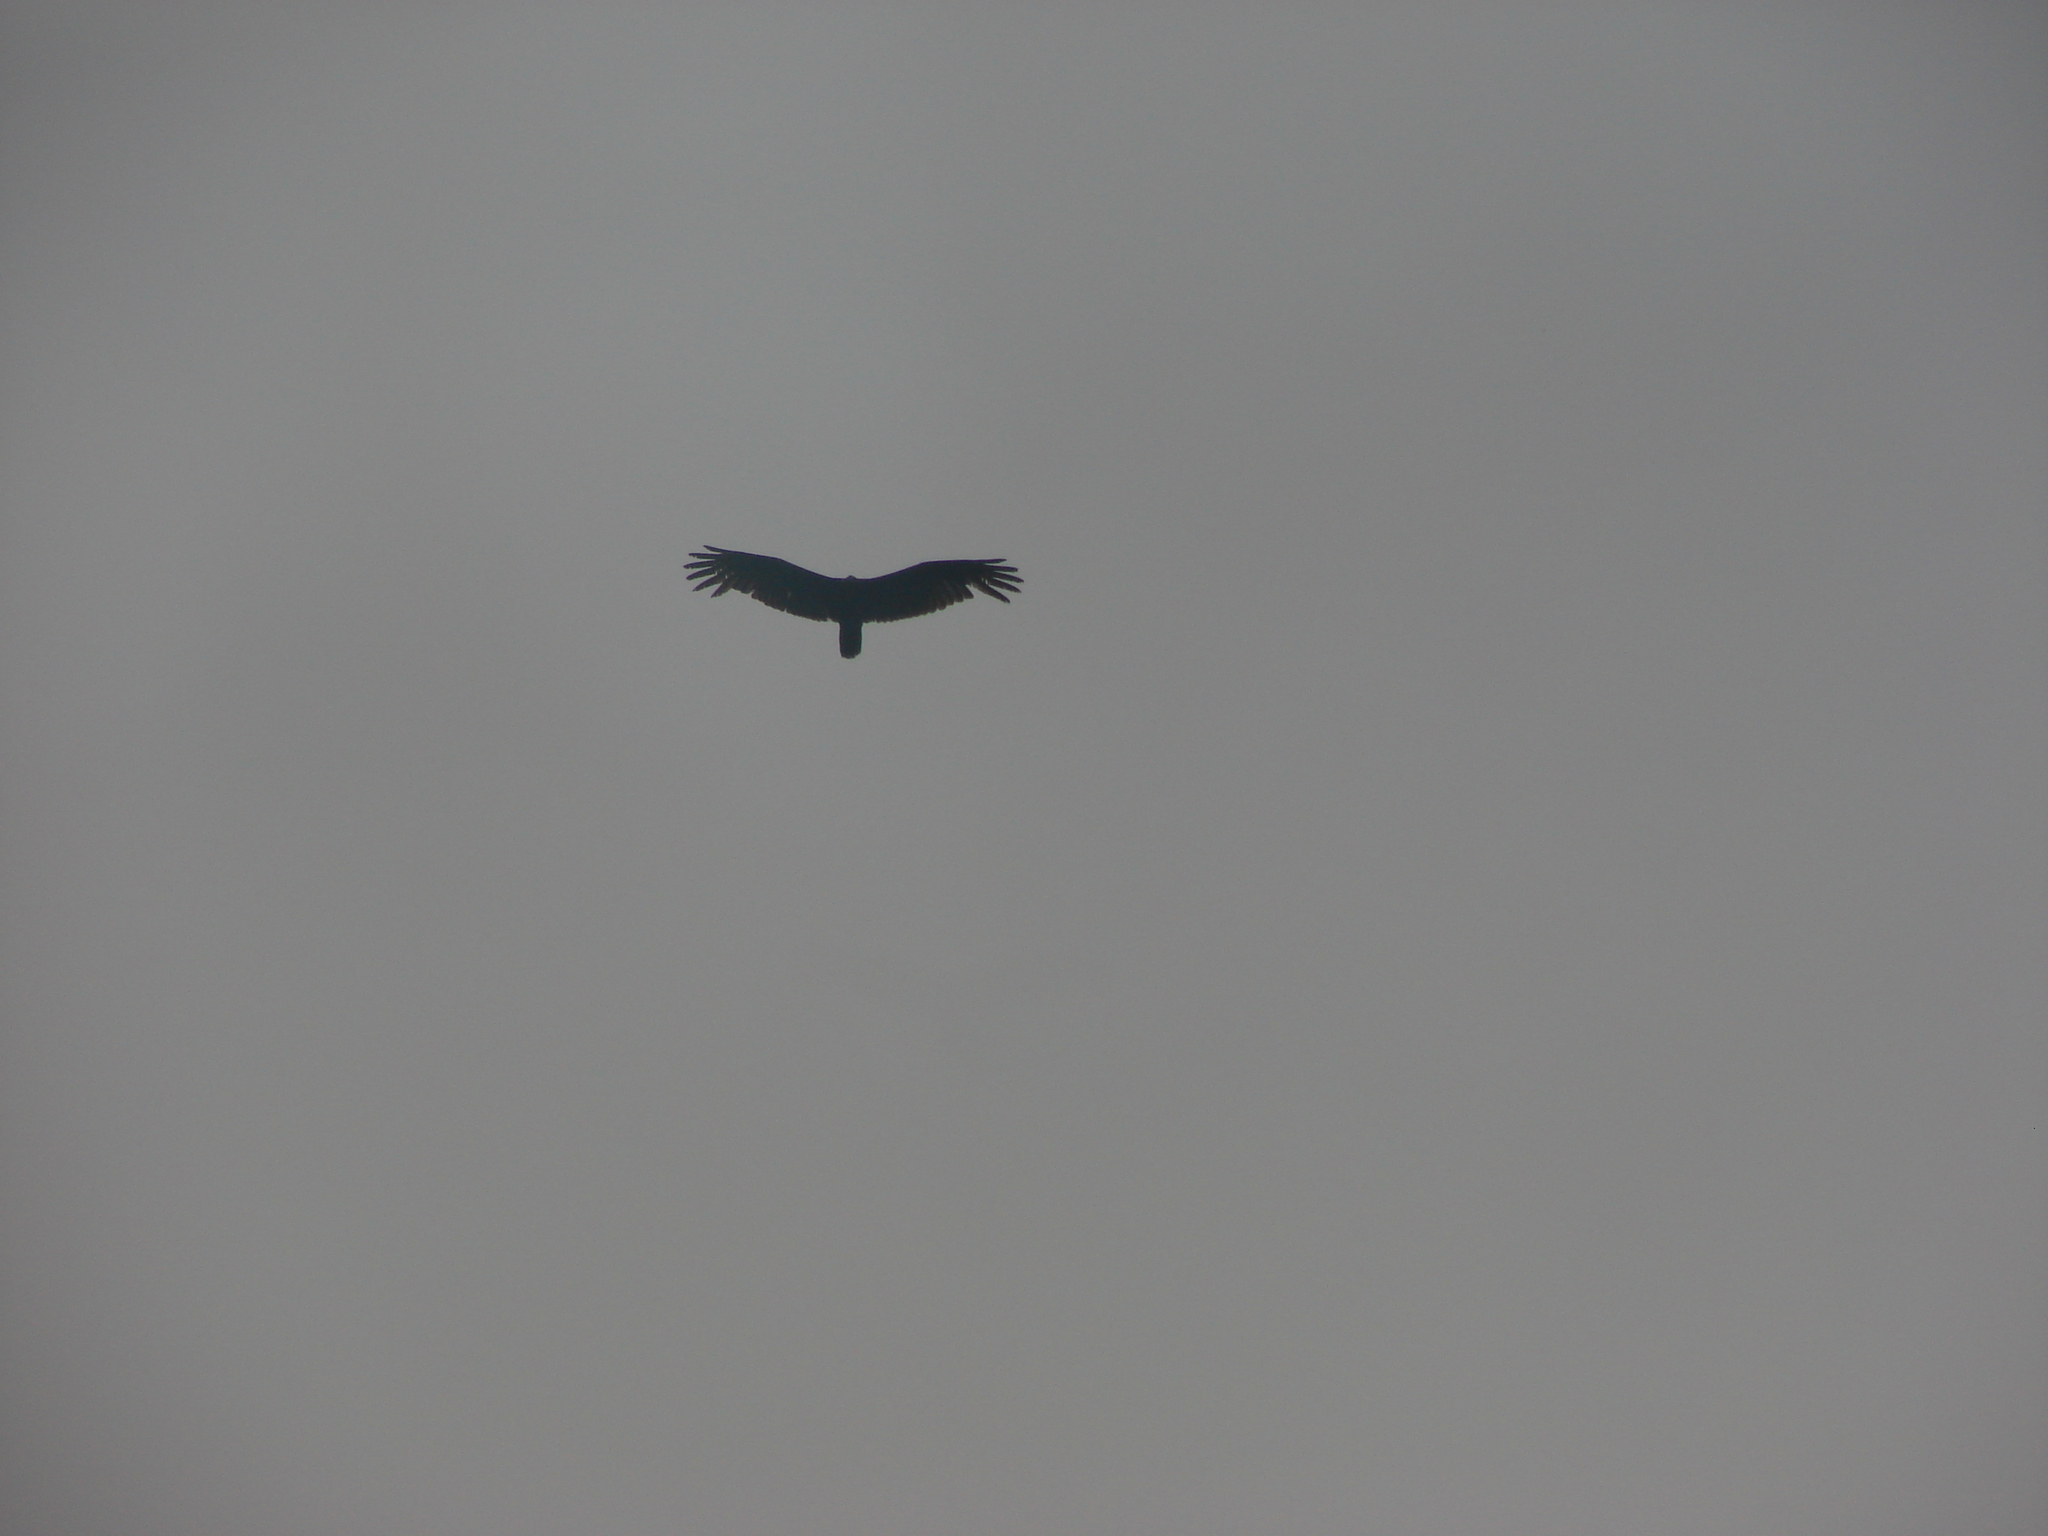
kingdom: Animalia
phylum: Chordata
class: Aves
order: Accipitriformes
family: Cathartidae
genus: Cathartes
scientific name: Cathartes aura
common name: Turkey vulture
